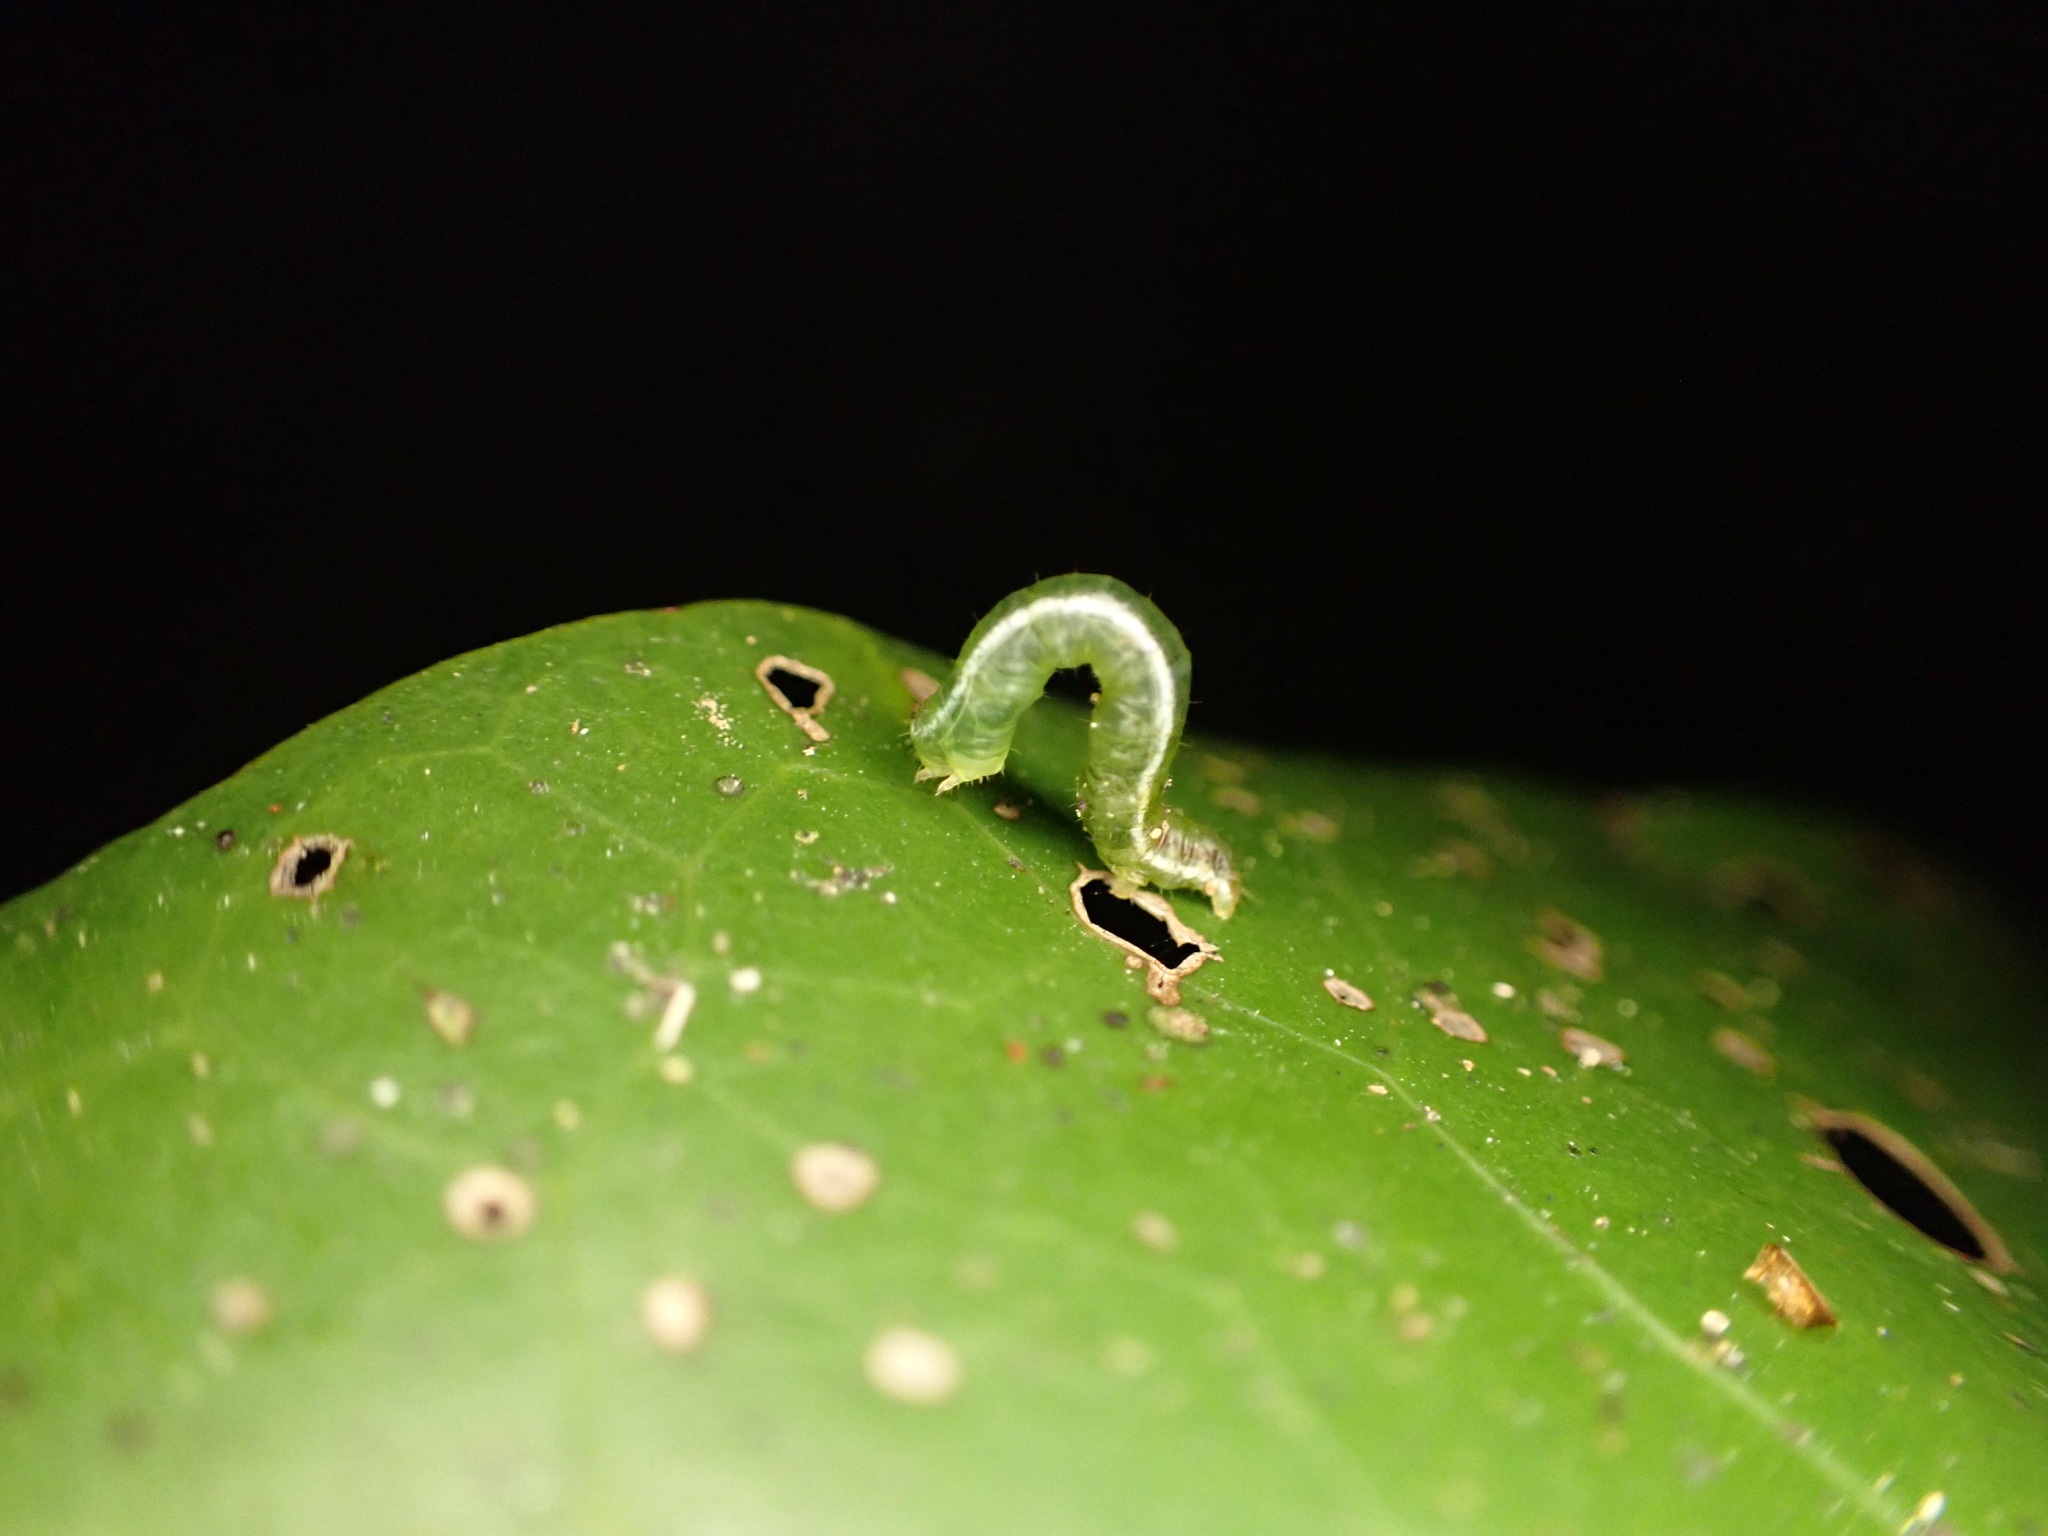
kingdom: Animalia
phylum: Arthropoda
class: Insecta
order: Lepidoptera
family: Geometridae
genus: Cleora
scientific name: Cleora scriptaria
